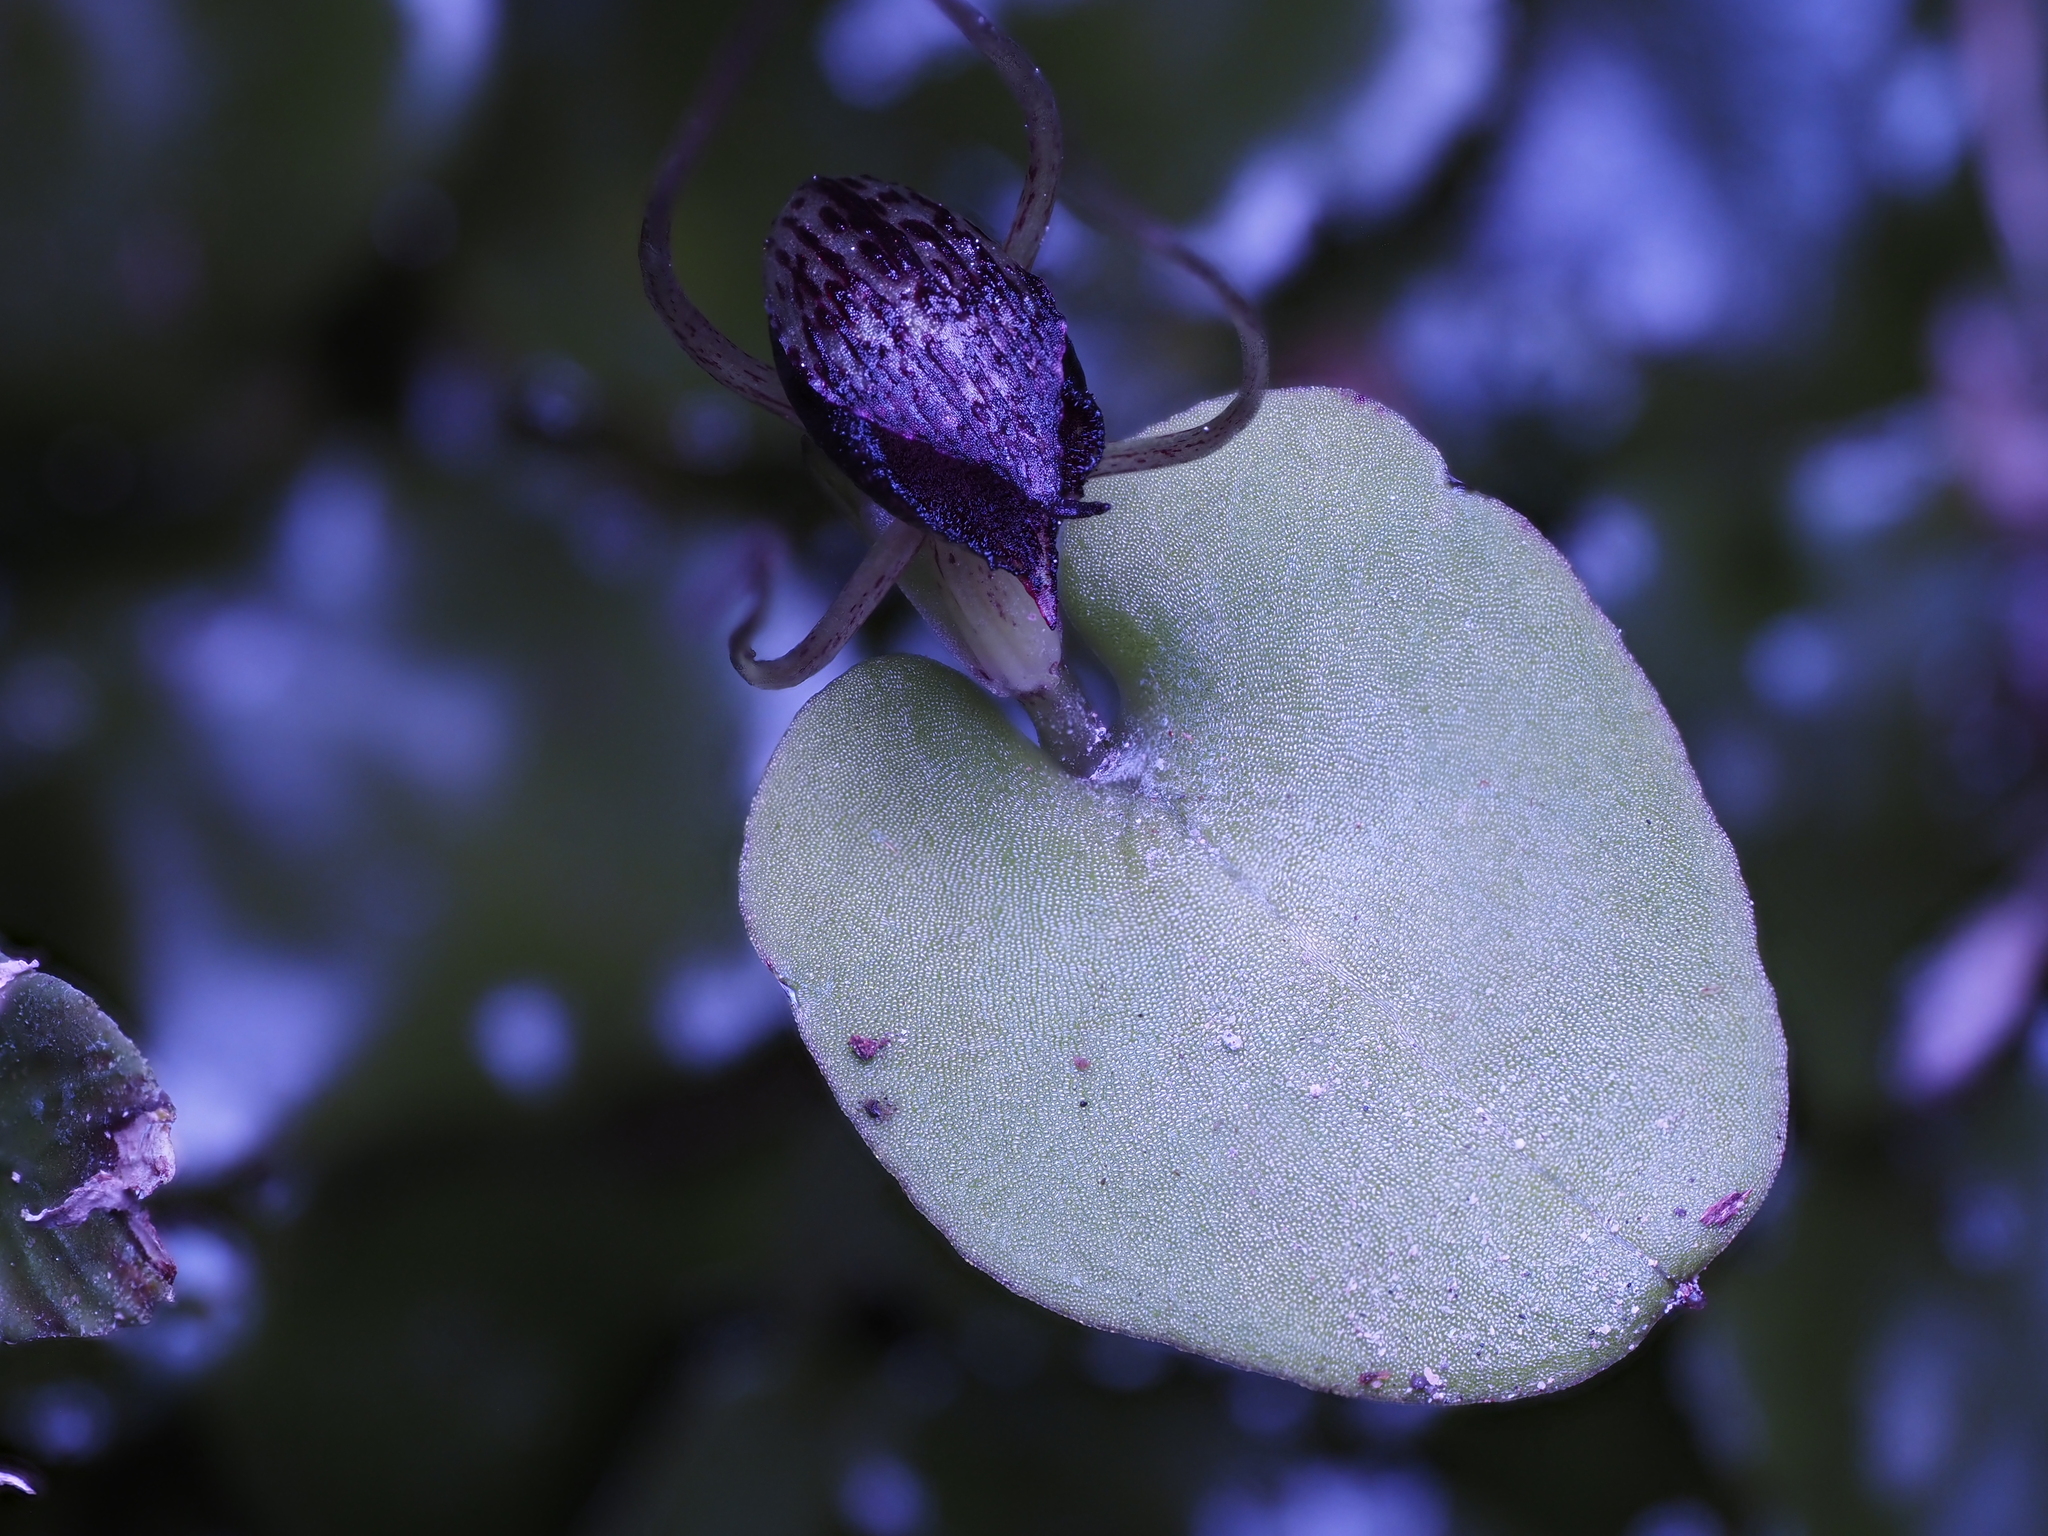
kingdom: Plantae
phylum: Tracheophyta
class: Liliopsida
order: Asparagales
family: Orchidaceae
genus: Corybas
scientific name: Corybas iridescens
